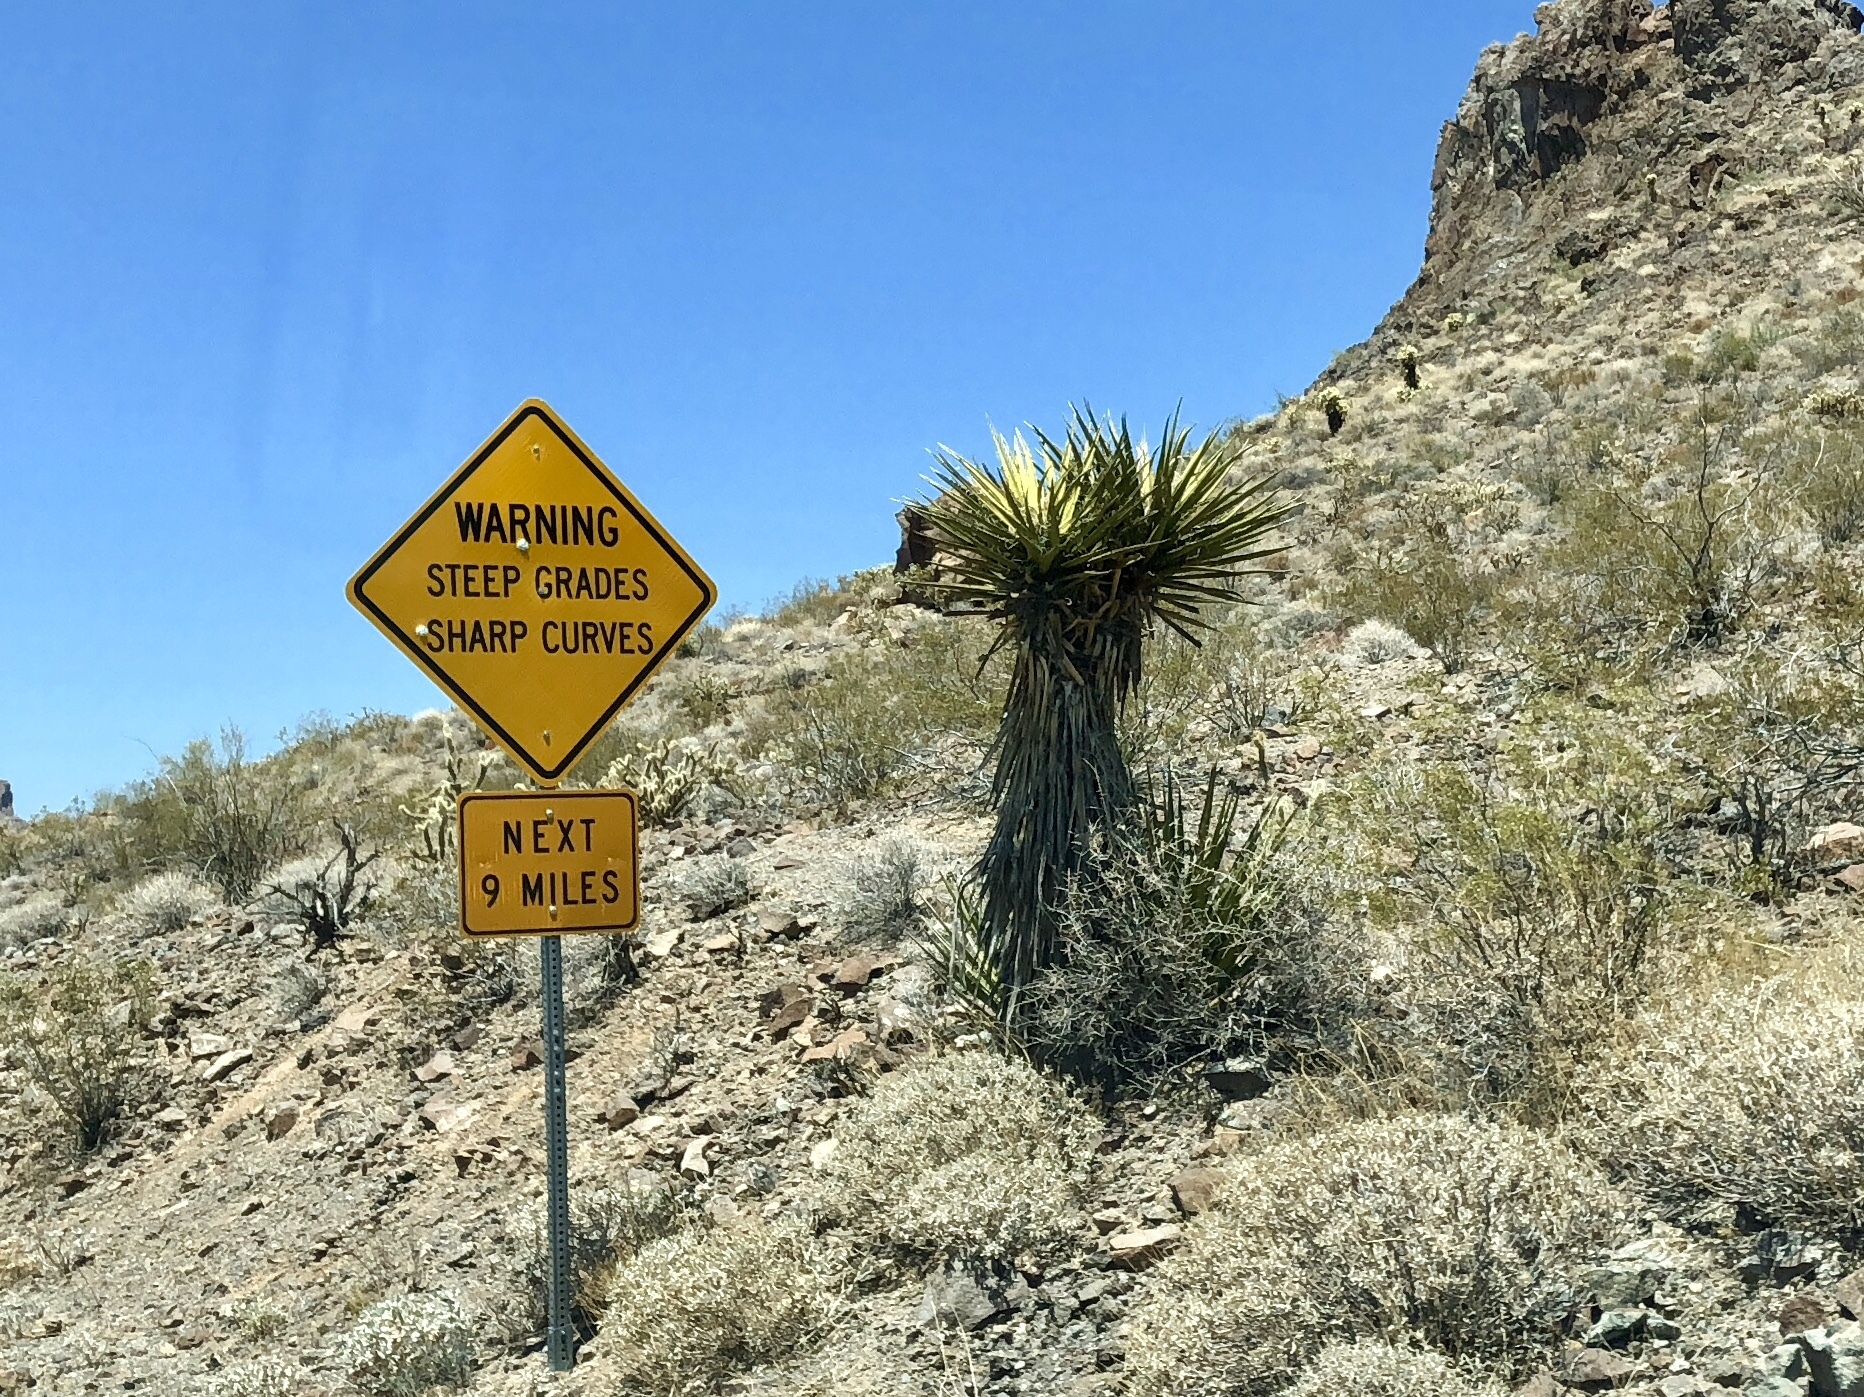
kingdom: Plantae
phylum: Tracheophyta
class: Liliopsida
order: Asparagales
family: Asparagaceae
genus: Yucca
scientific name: Yucca schidigera
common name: Mojave yucca
